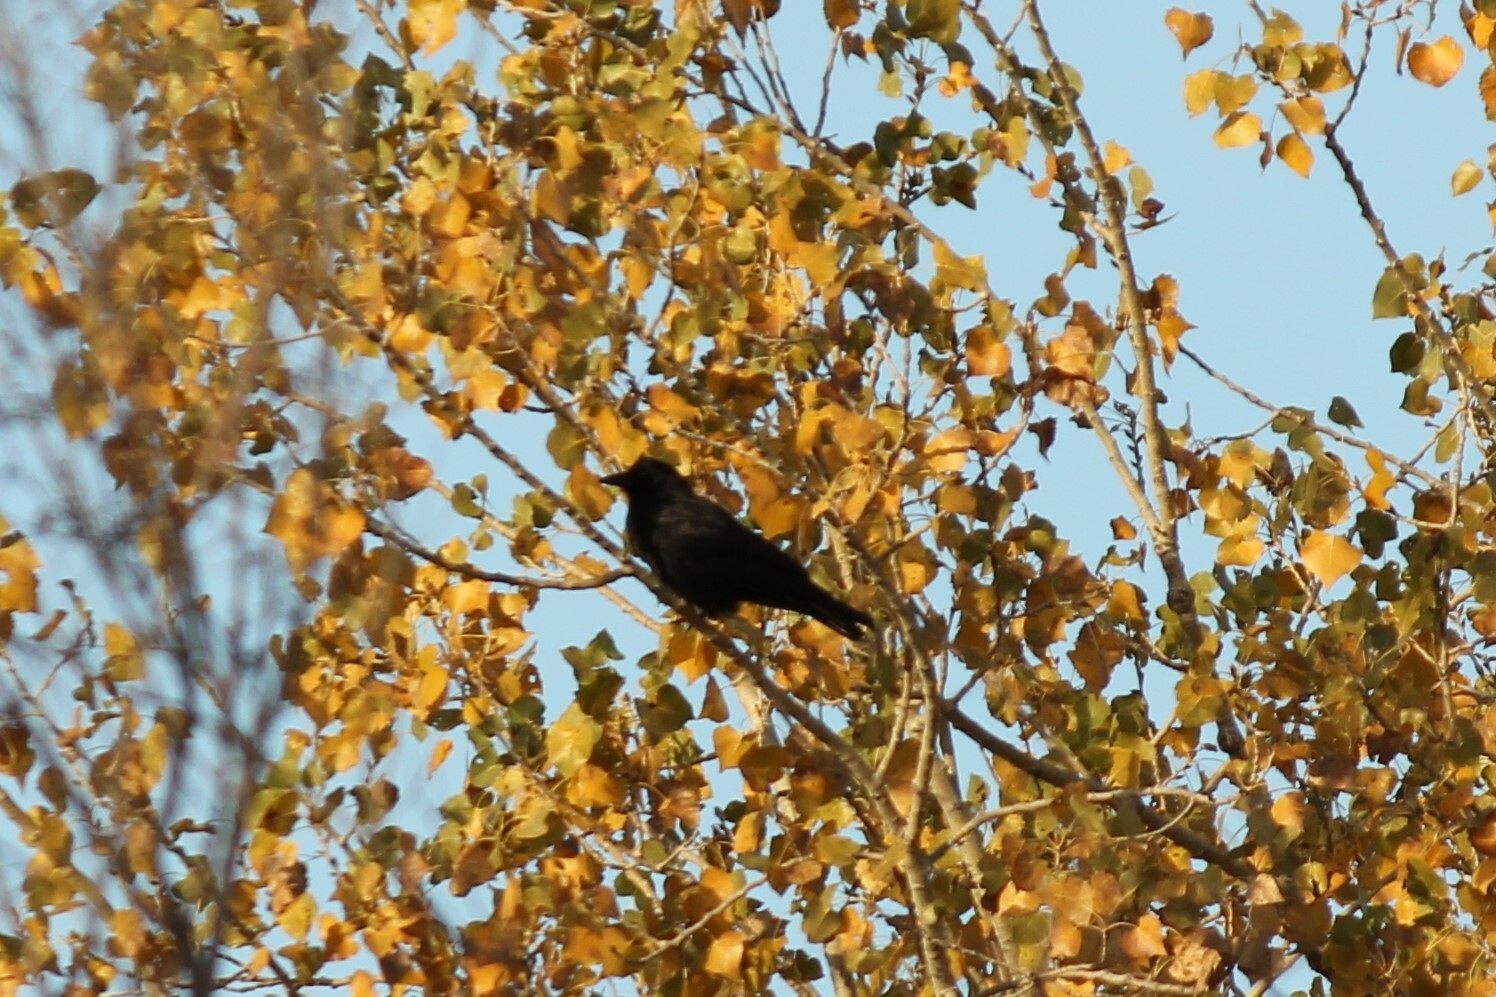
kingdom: Animalia
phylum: Chordata
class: Aves
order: Passeriformes
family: Corvidae
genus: Corvus
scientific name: Corvus brachyrhynchos
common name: American crow
